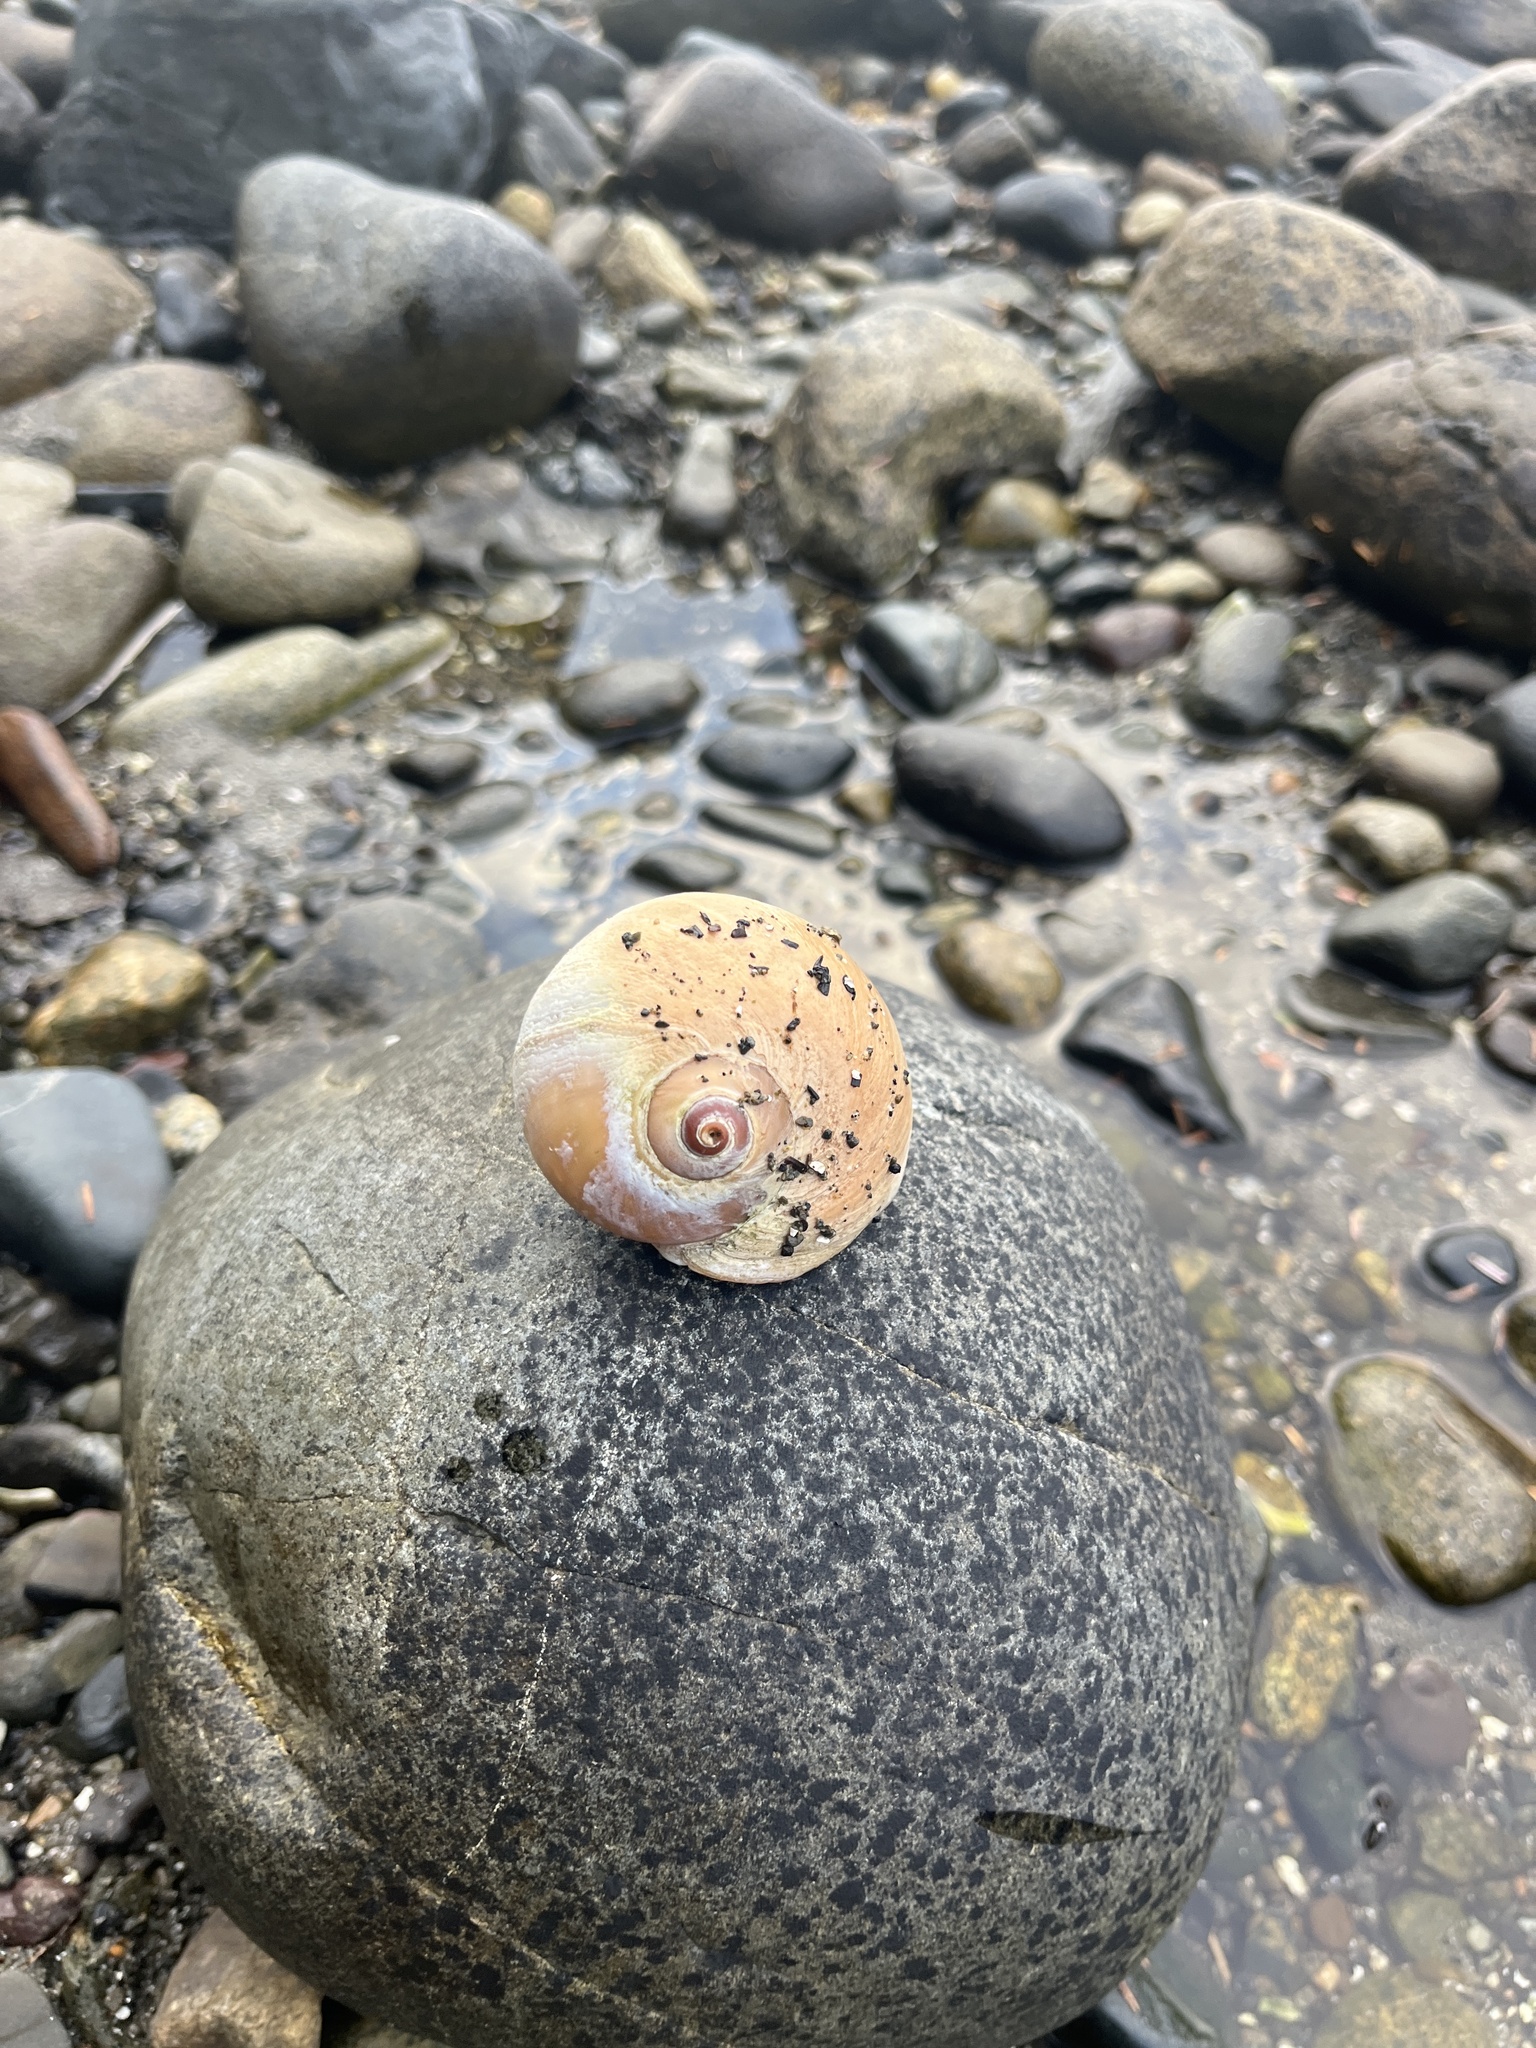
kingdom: Animalia
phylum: Mollusca
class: Gastropoda
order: Littorinimorpha
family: Naticidae
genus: Neverita
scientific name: Neverita lewisii
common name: Lewis' moonsnail
